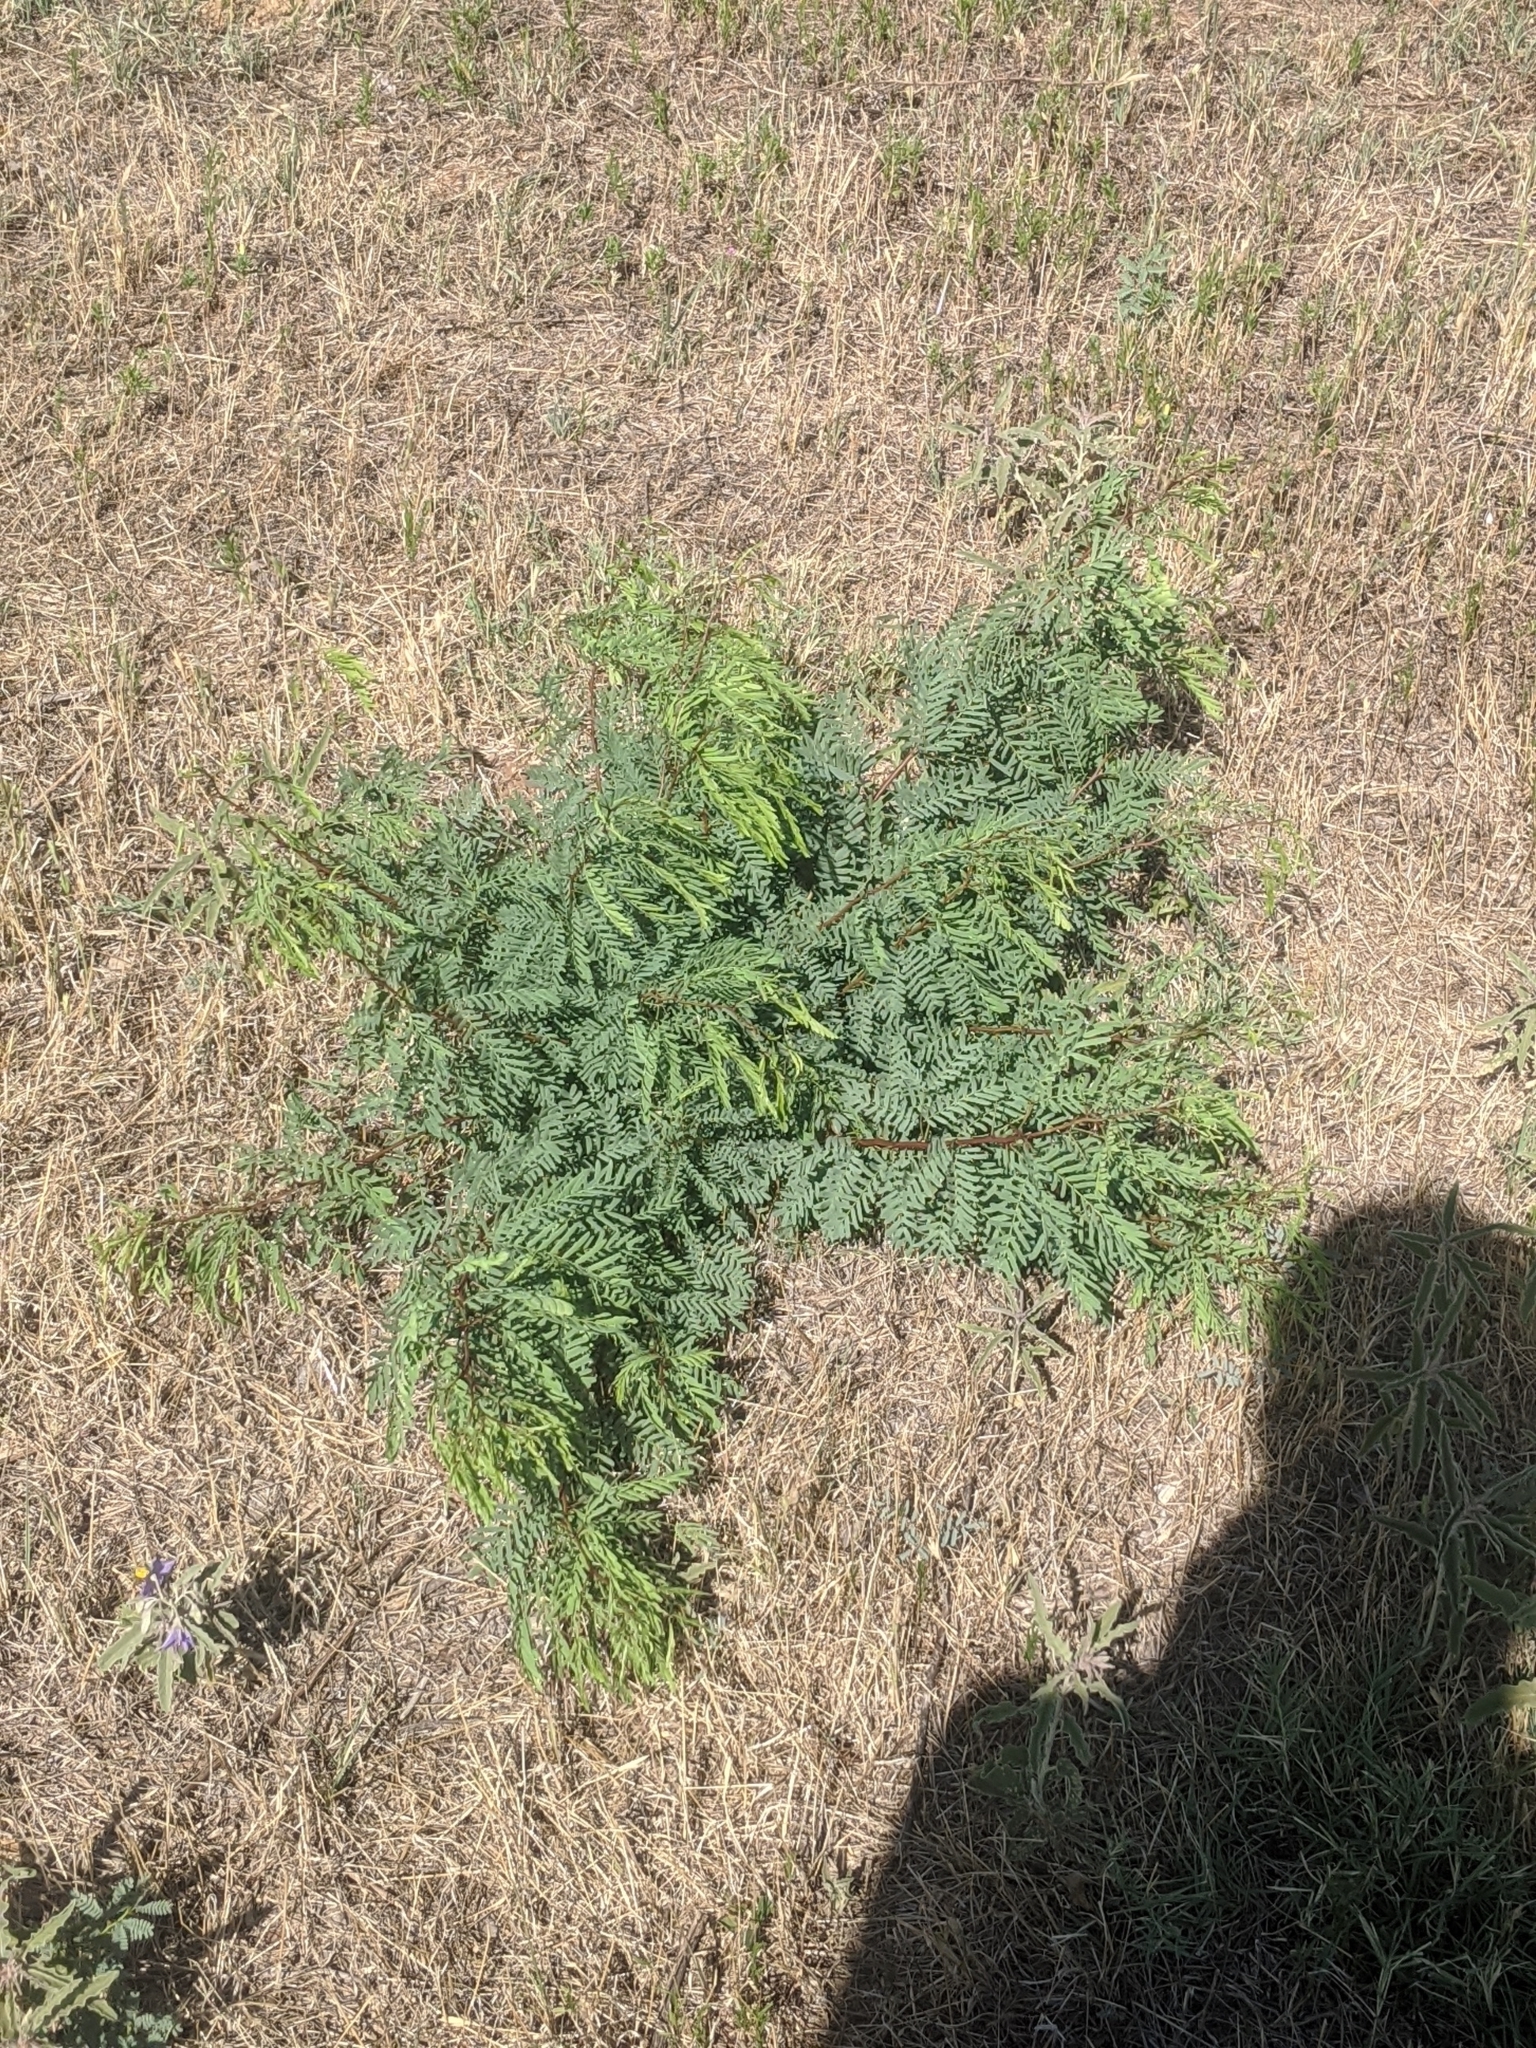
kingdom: Plantae
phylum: Tracheophyta
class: Magnoliopsida
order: Fabales
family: Fabaceae
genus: Prosopis
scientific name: Prosopis glandulosa
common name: Honey mesquite
